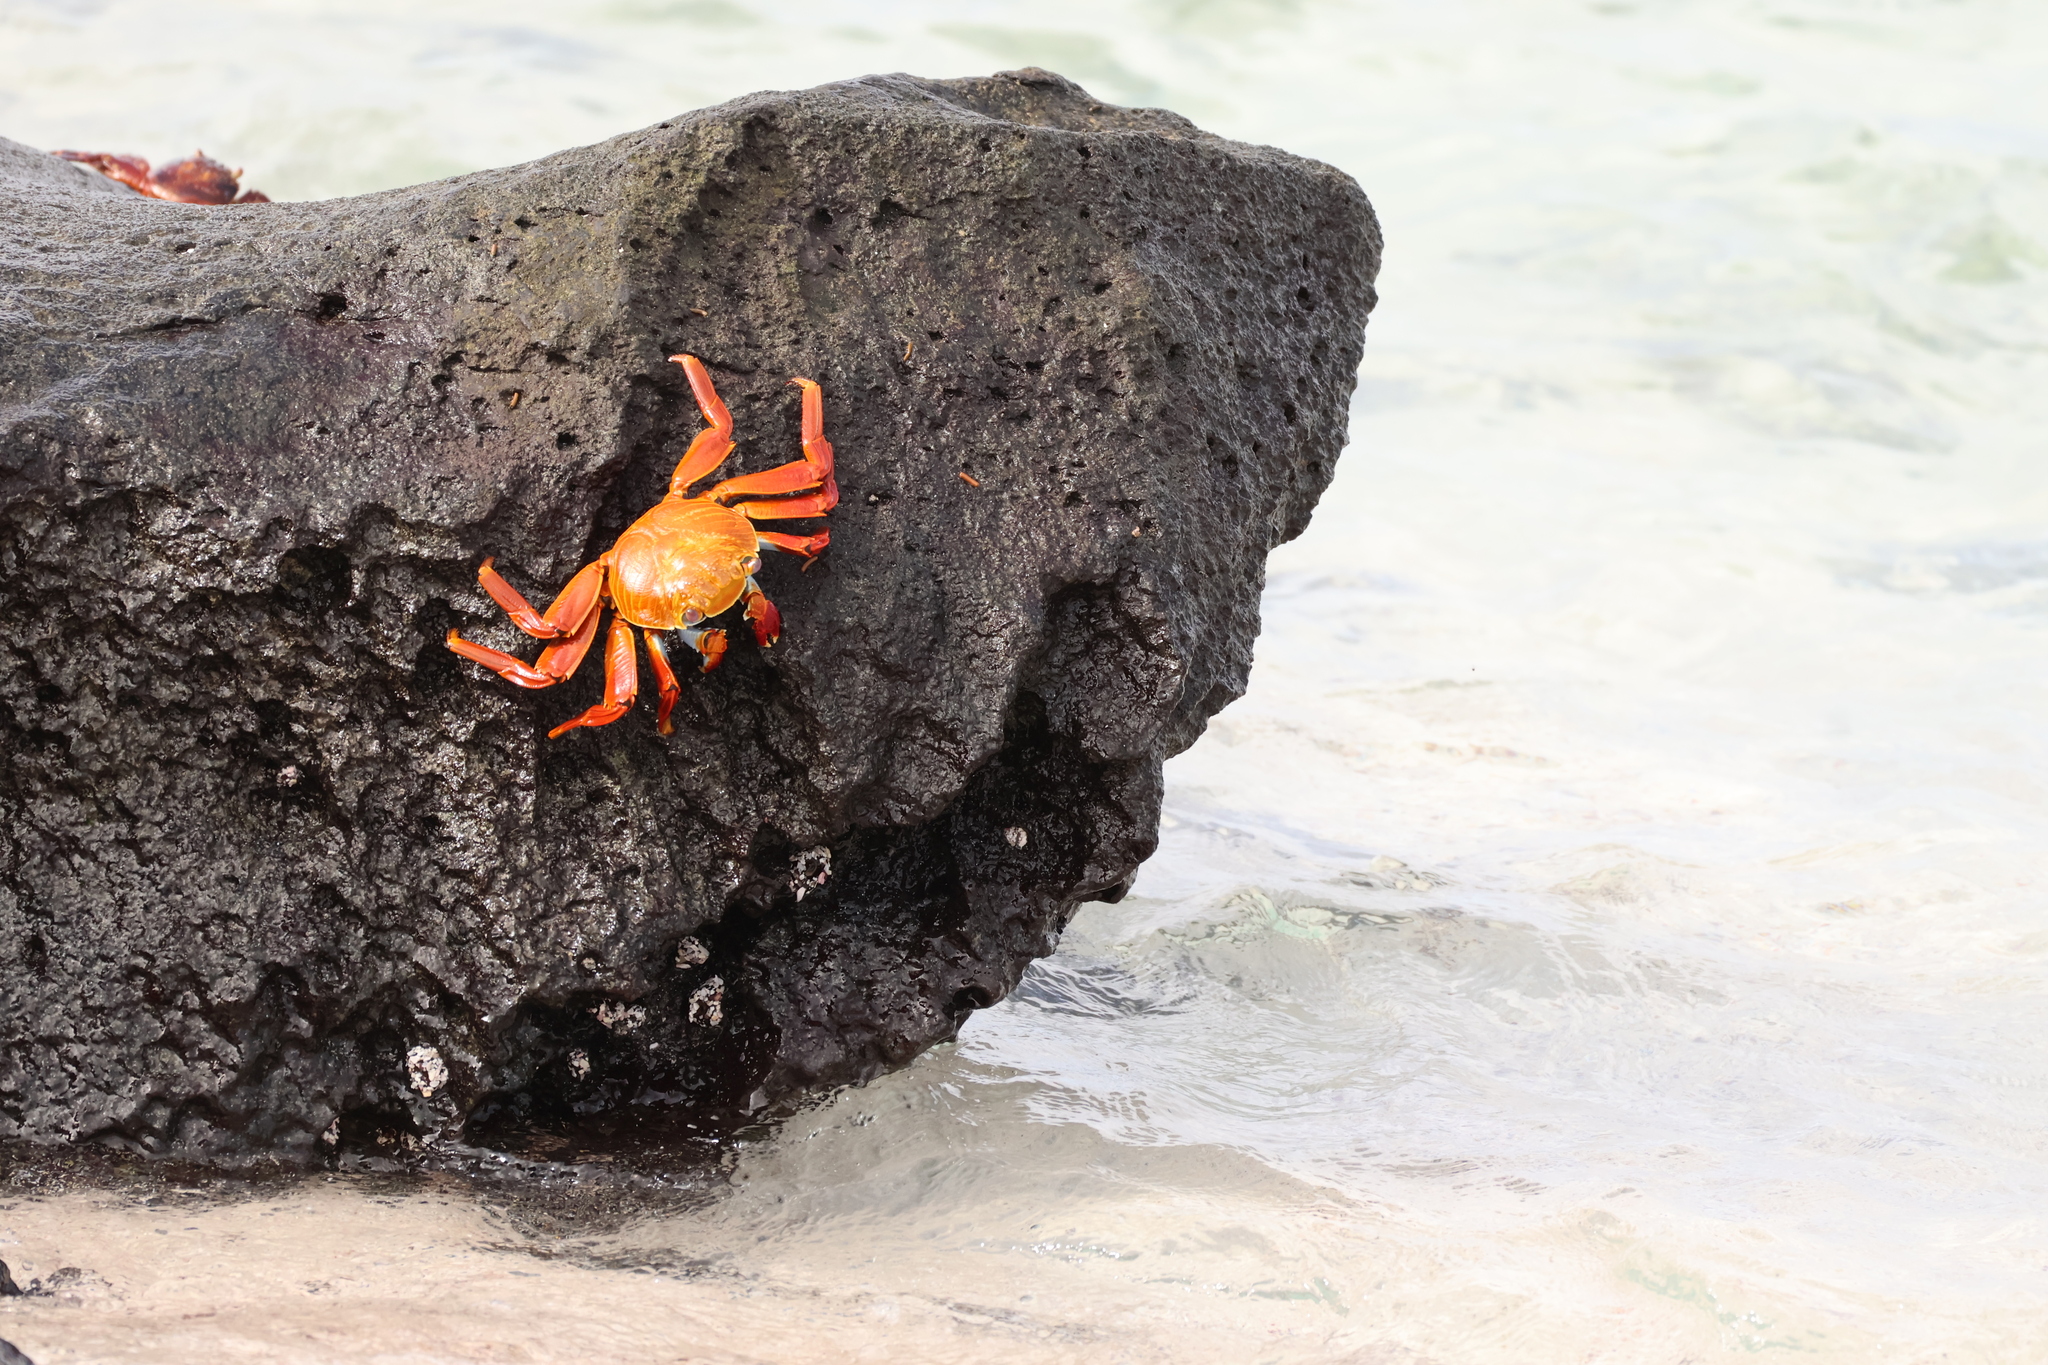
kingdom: Animalia
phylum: Arthropoda
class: Malacostraca
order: Decapoda
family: Grapsidae
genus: Grapsus
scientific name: Grapsus grapsus
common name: Sally lightfoot
